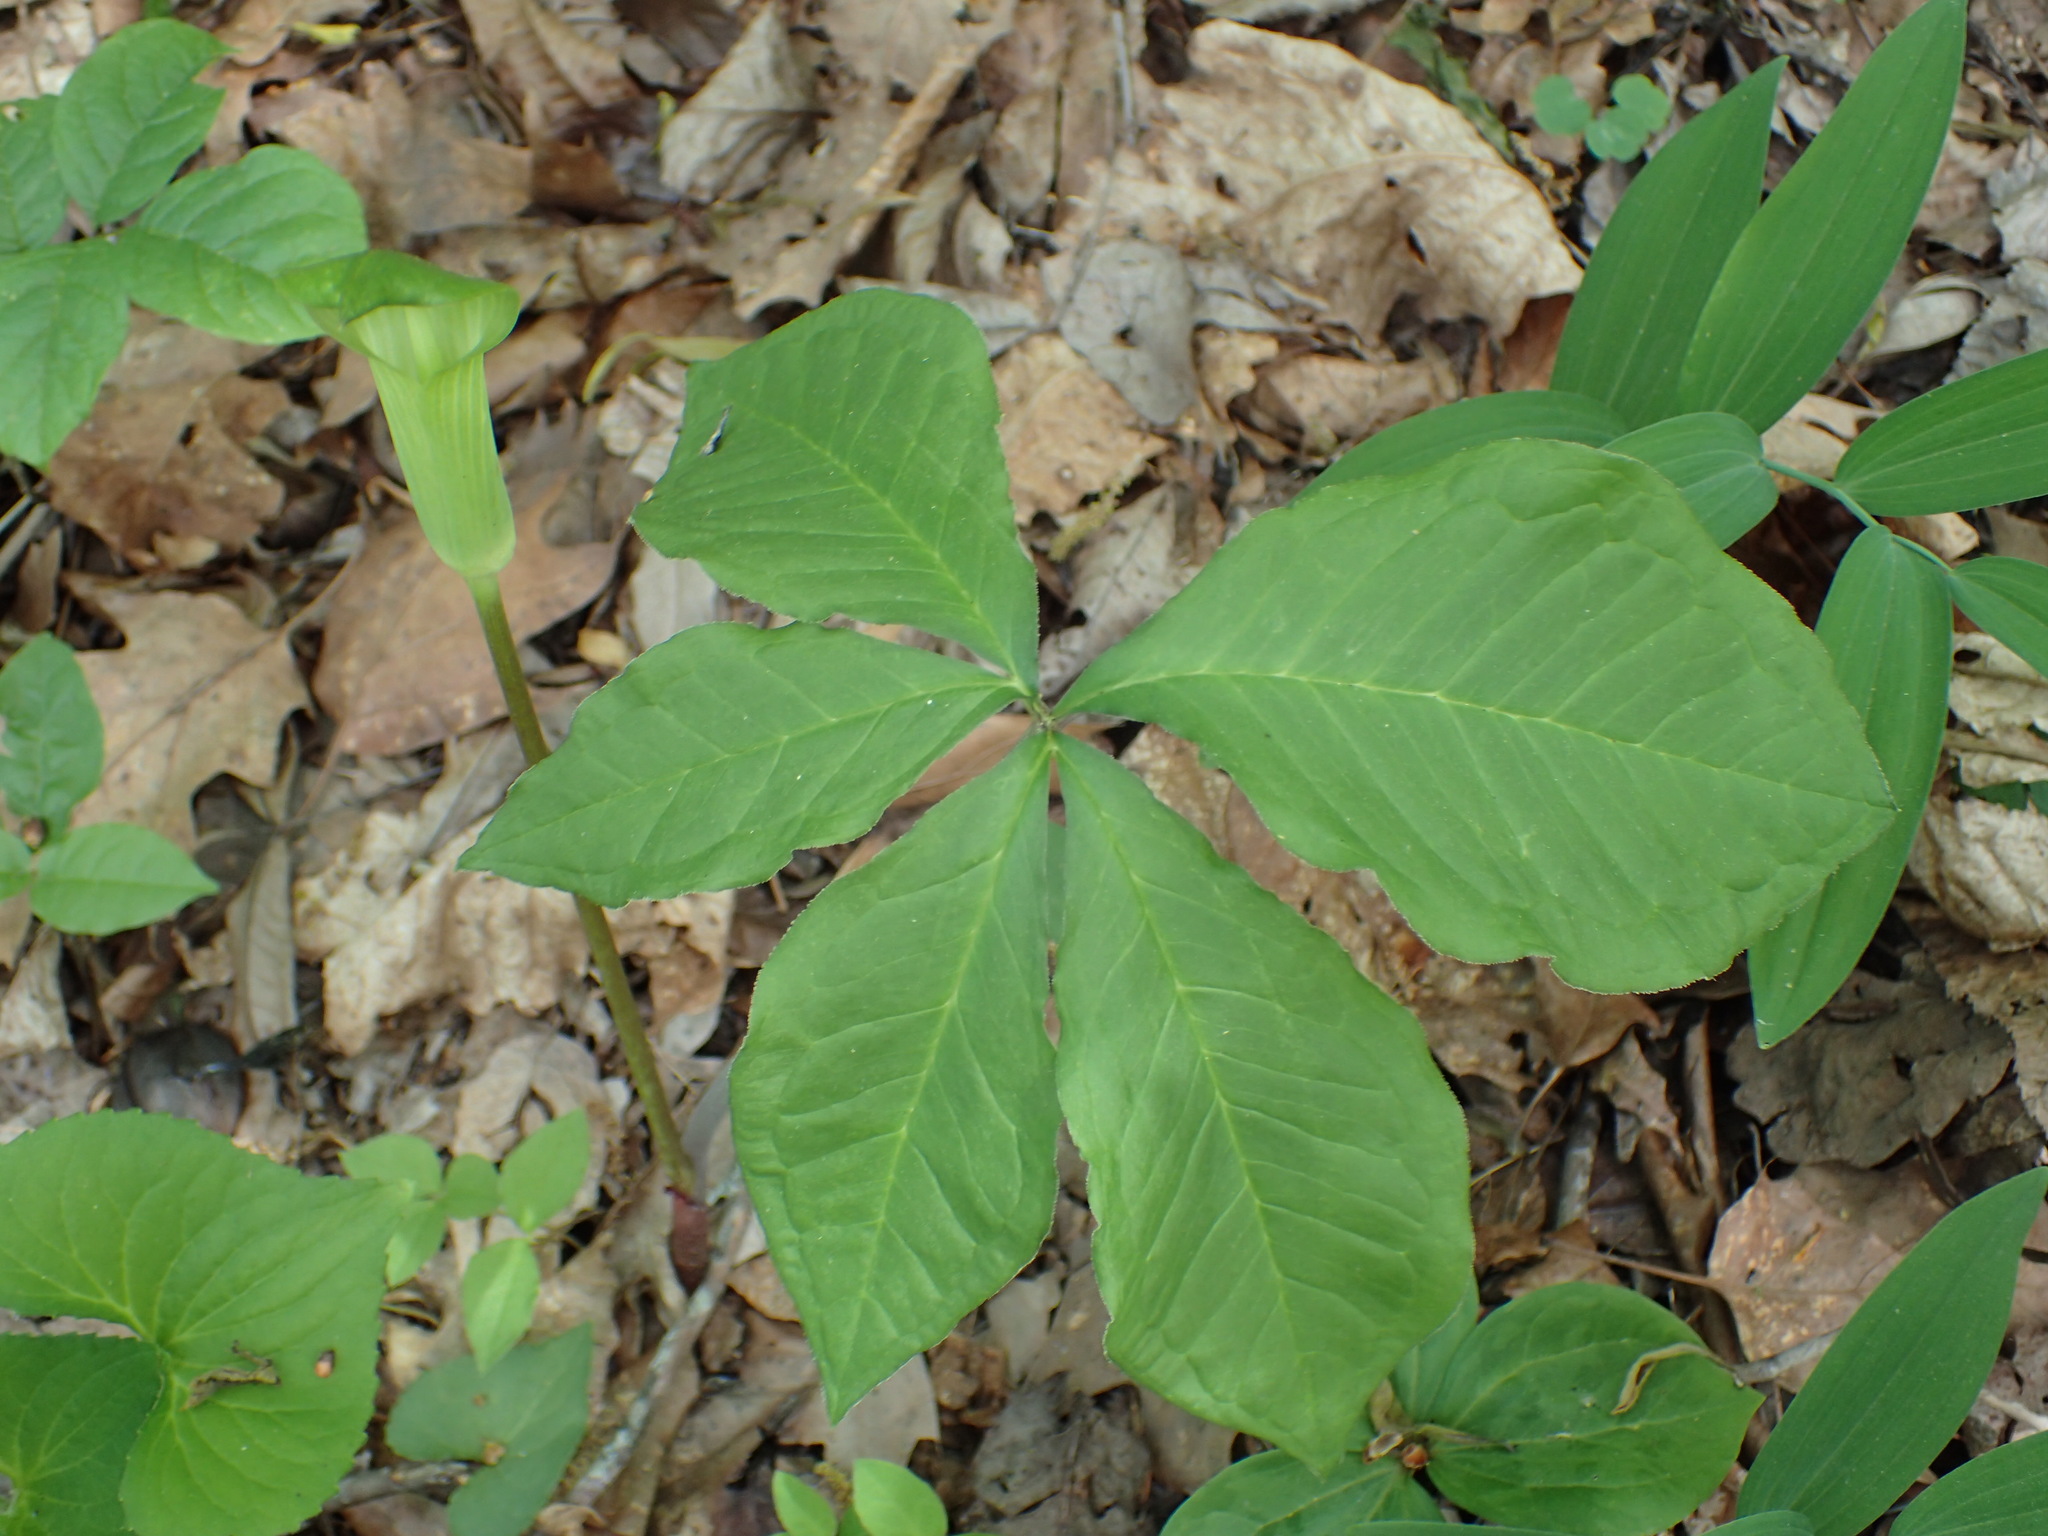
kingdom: Plantae
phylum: Tracheophyta
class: Liliopsida
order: Alismatales
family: Araceae
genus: Arisaema
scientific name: Arisaema quinatum
